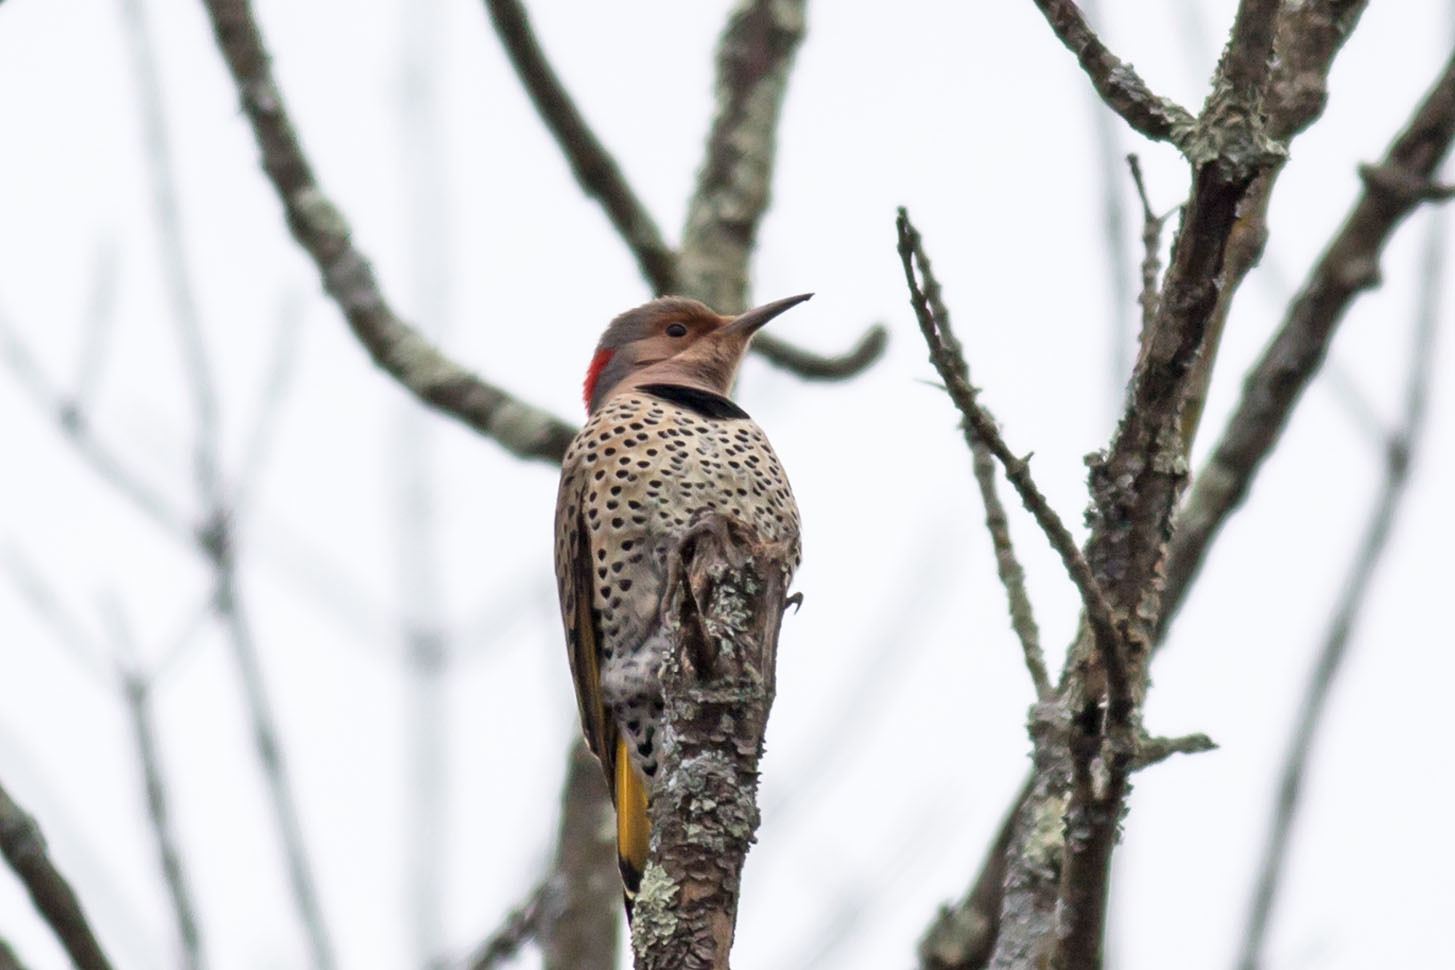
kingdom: Animalia
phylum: Chordata
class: Aves
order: Piciformes
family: Picidae
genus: Colaptes
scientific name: Colaptes auratus
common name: Northern flicker
